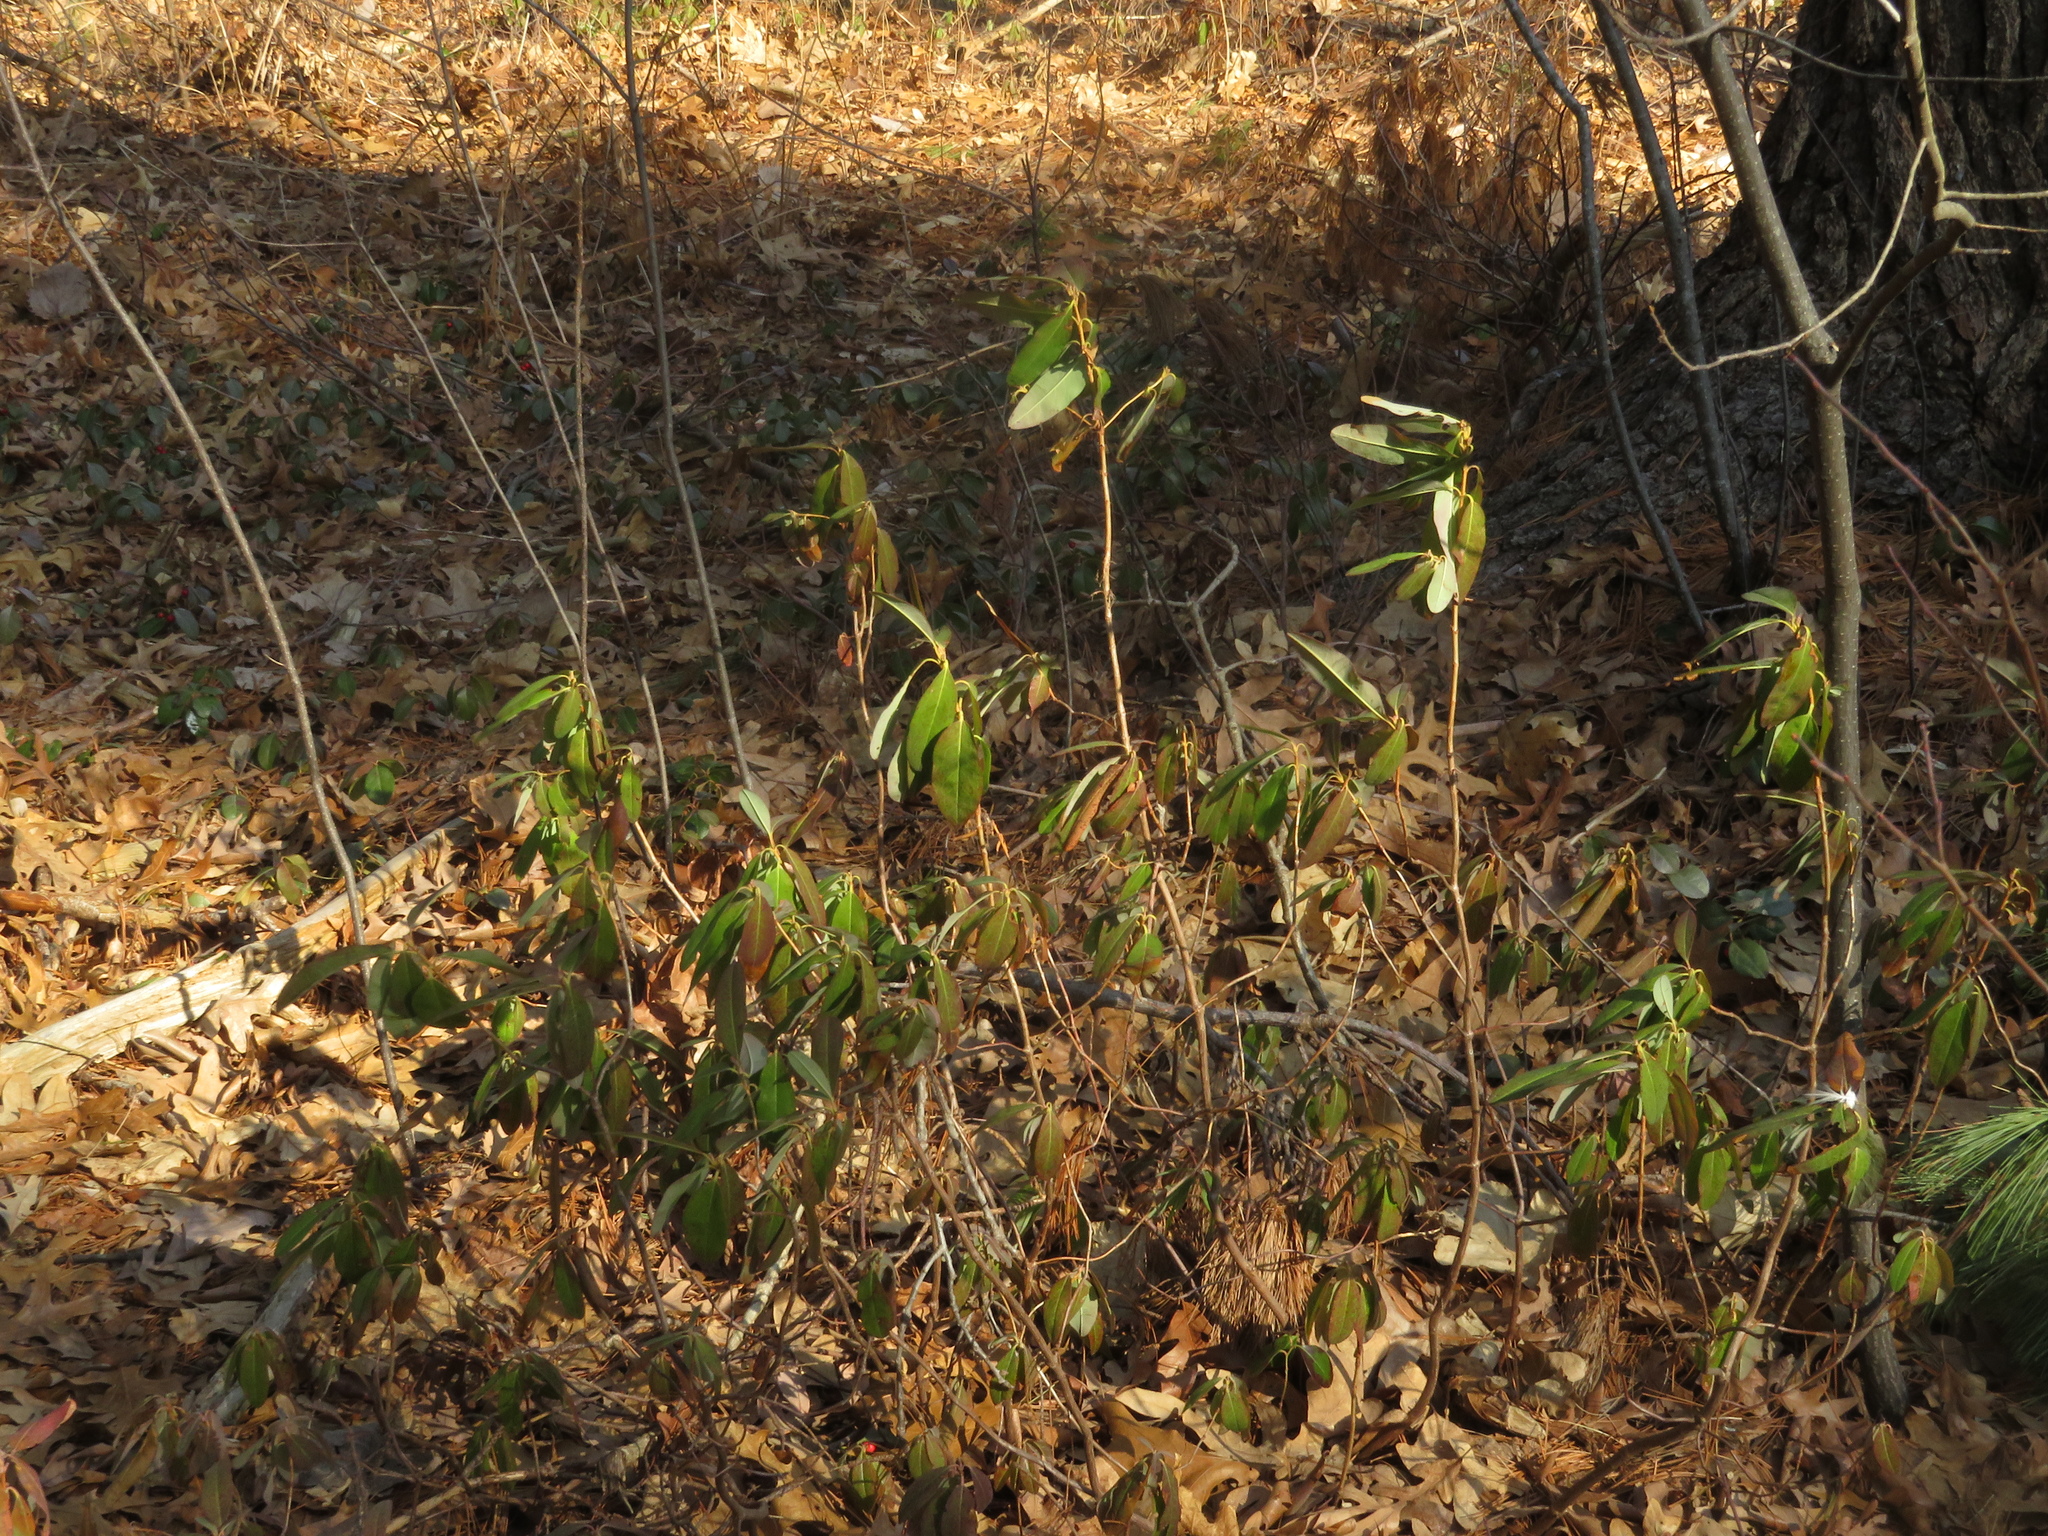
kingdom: Plantae
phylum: Tracheophyta
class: Magnoliopsida
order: Ericales
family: Ericaceae
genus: Kalmia
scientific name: Kalmia angustifolia
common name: Sheep-laurel
